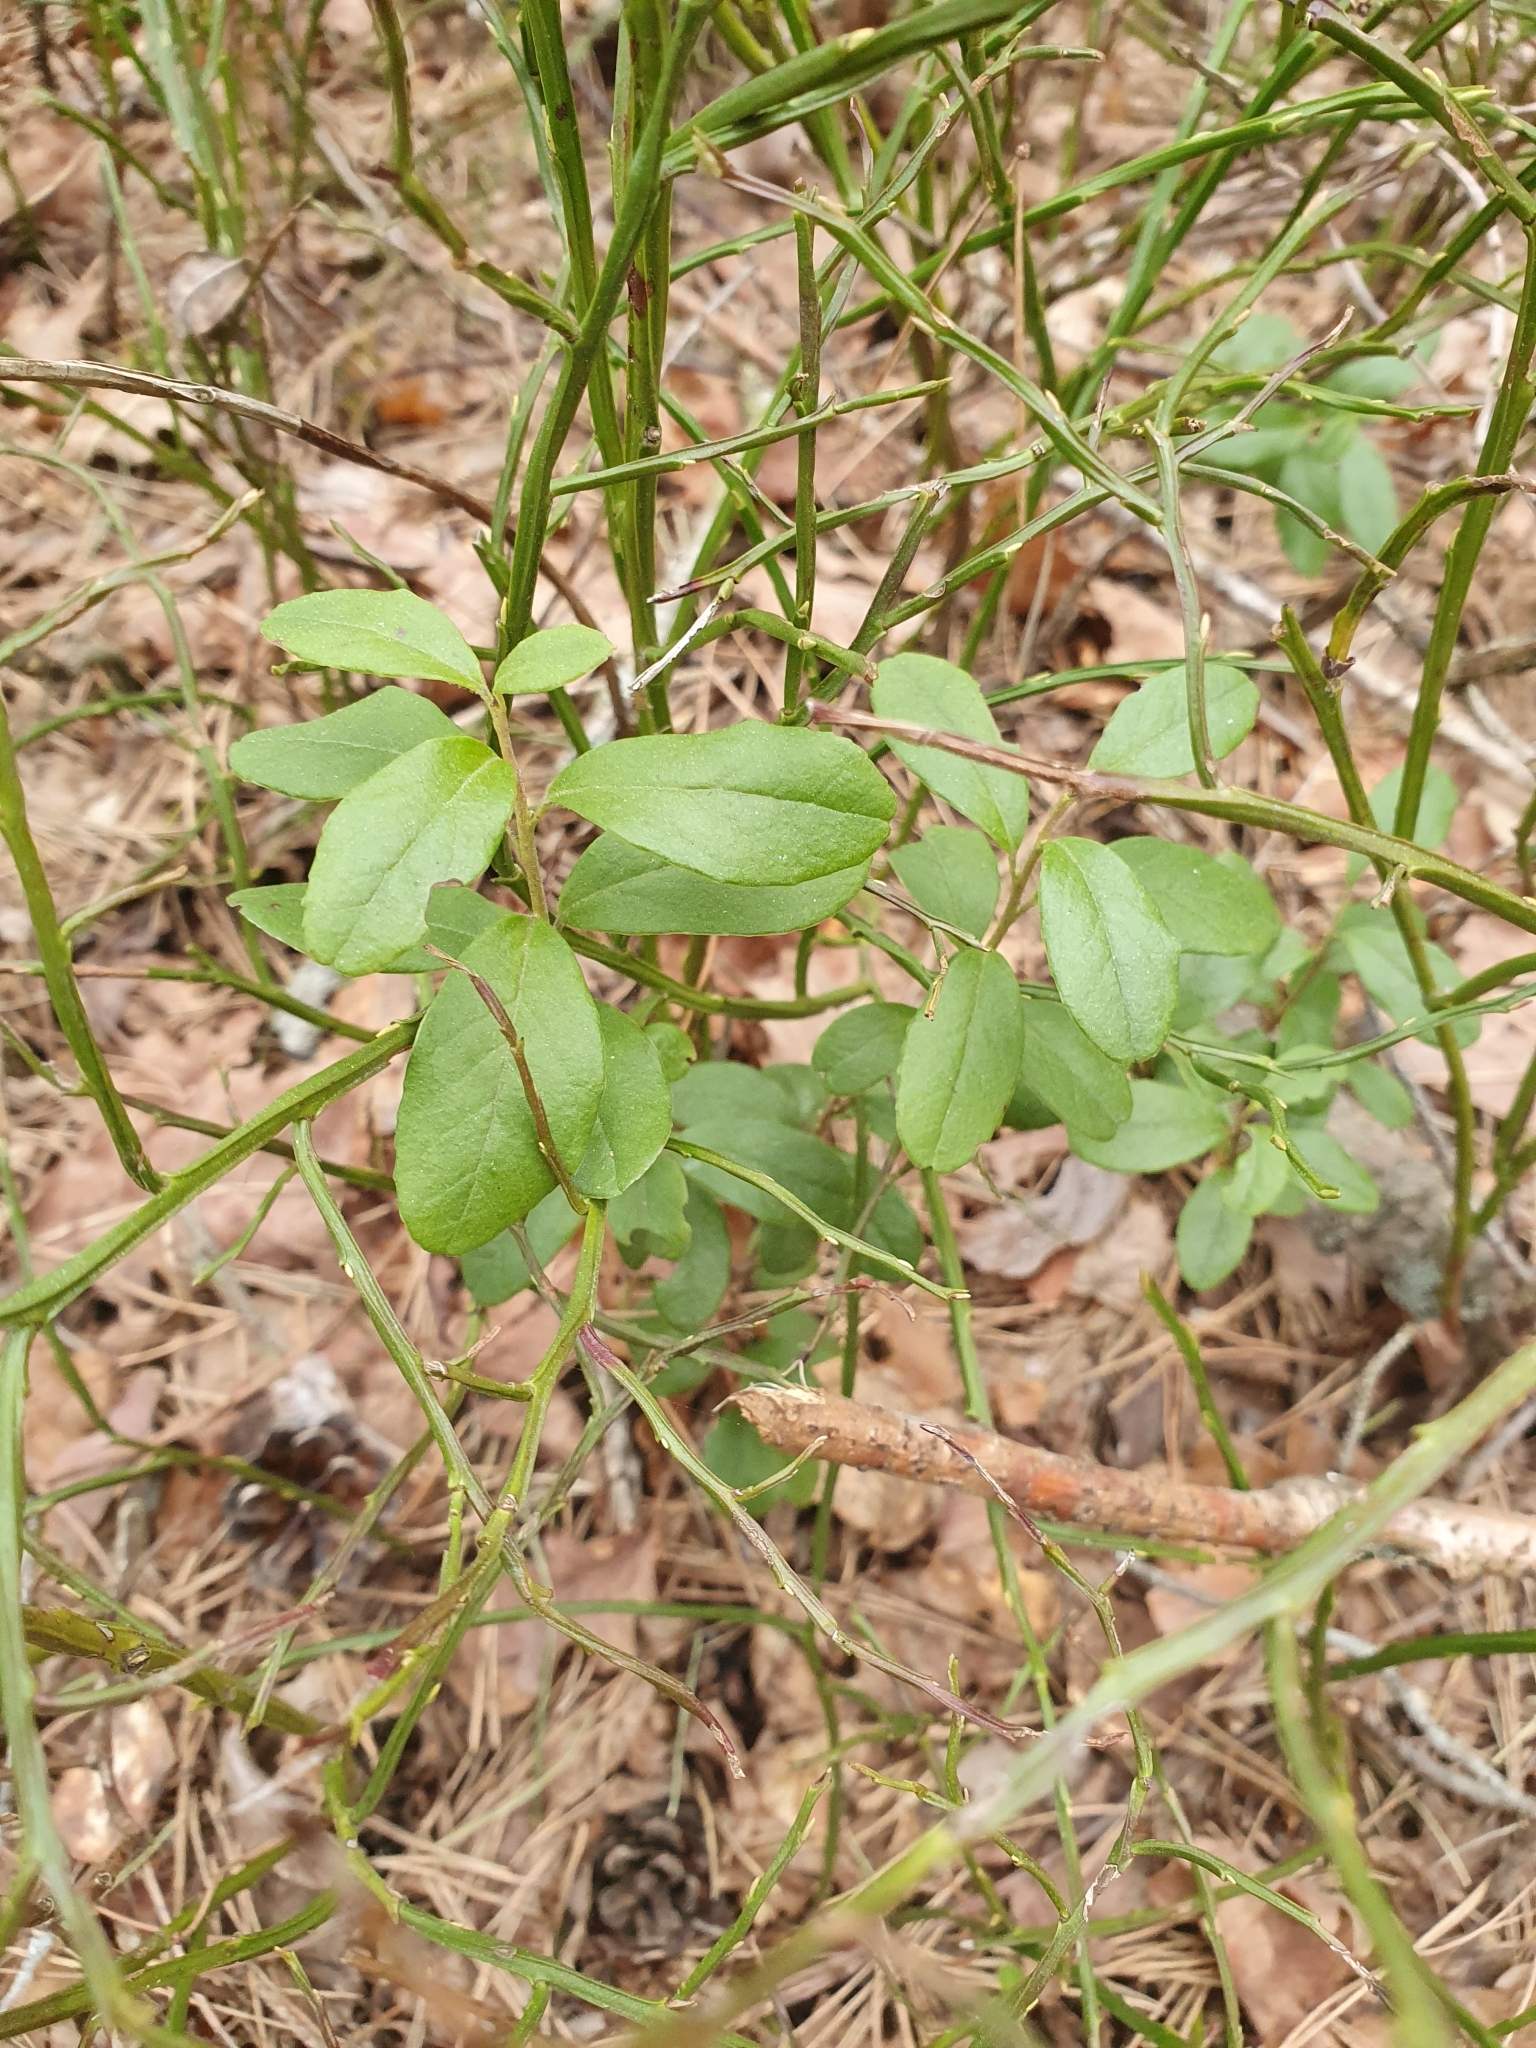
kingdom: Plantae
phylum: Tracheophyta
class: Magnoliopsida
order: Ericales
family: Ericaceae
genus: Vaccinium
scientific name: Vaccinium vitis-idaea
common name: Cowberry
